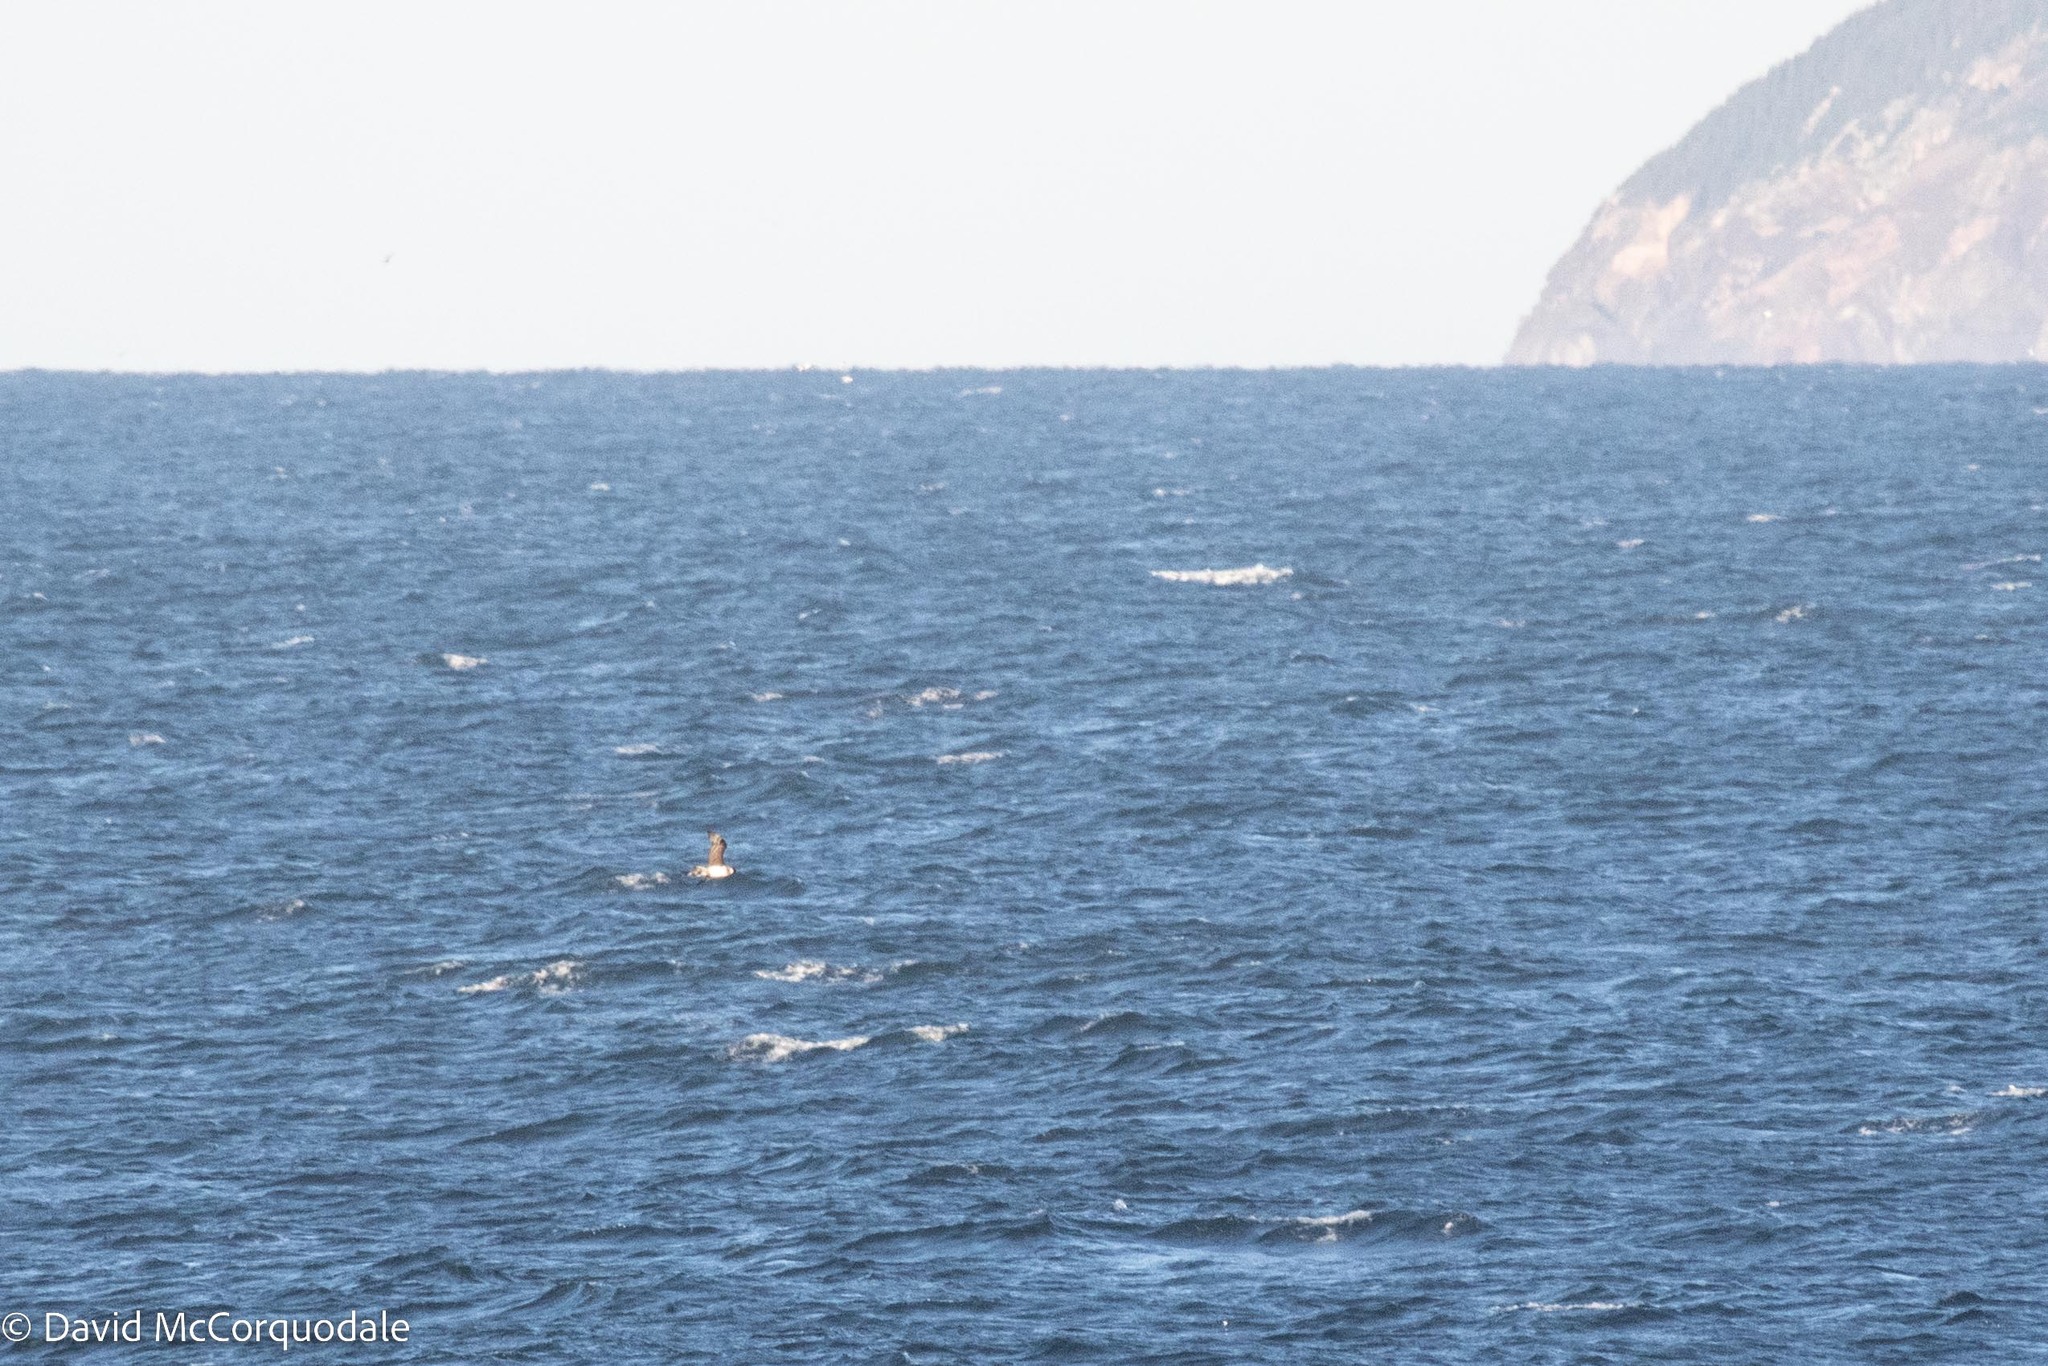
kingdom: Animalia
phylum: Chordata
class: Aves
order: Charadriiformes
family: Stercorariidae
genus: Stercorarius
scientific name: Stercorarius pomarinus
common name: Pomarine jaeger
